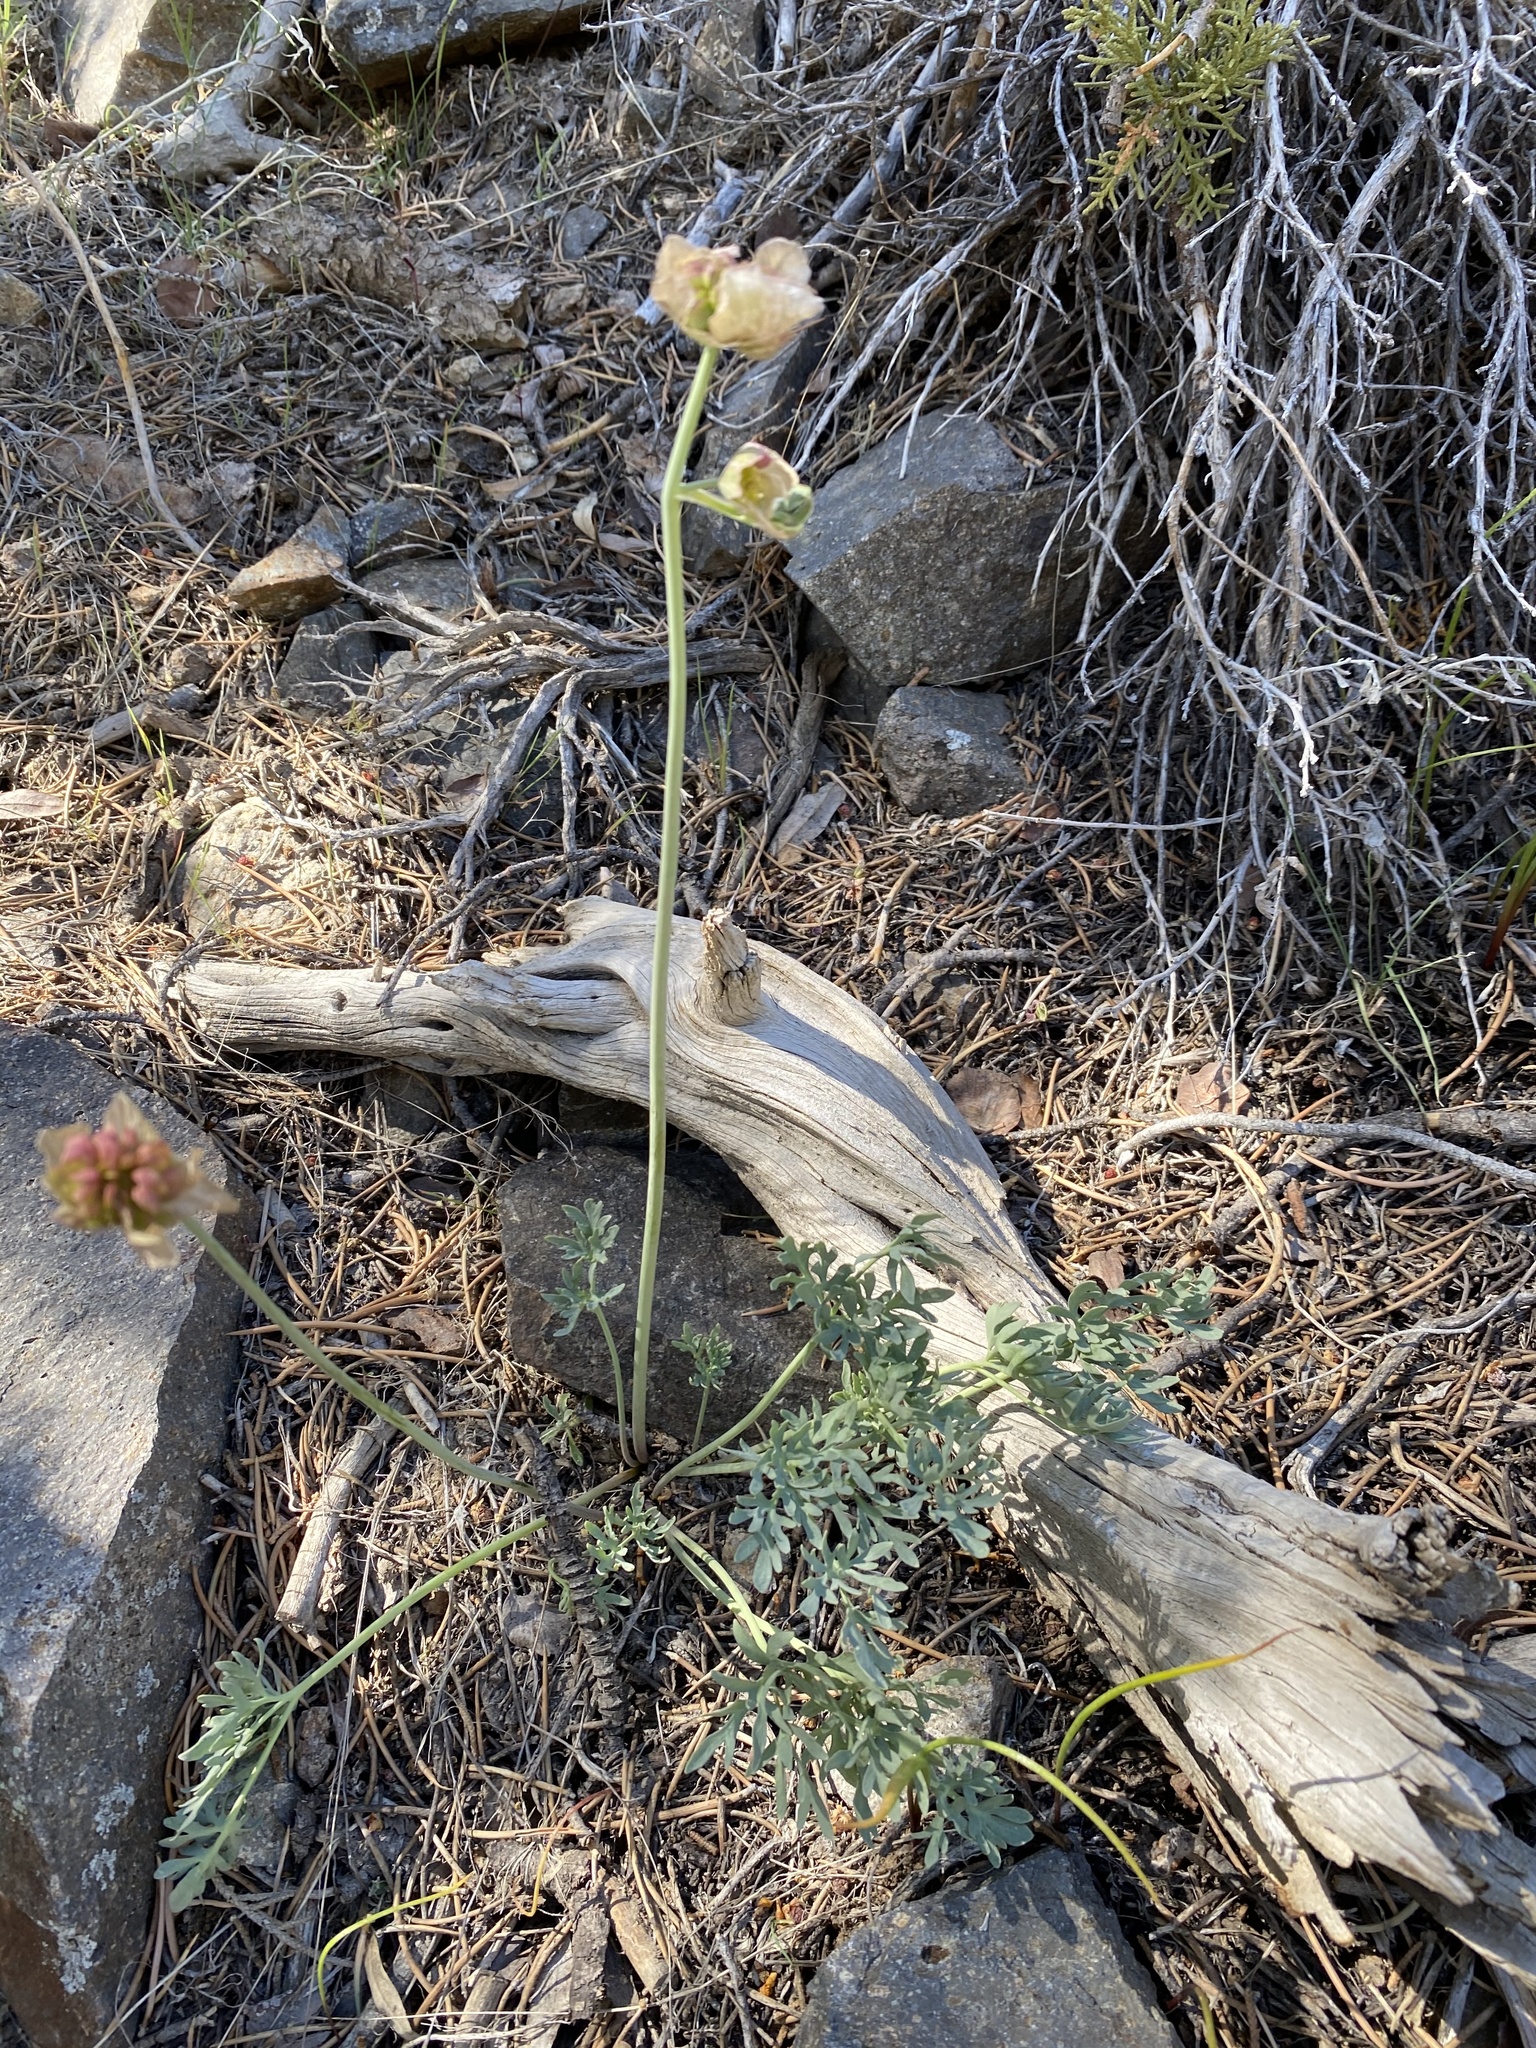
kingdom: Plantae
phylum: Tracheophyta
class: Magnoliopsida
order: Ranunculales
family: Ranunculaceae
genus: Beckwithia
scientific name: Beckwithia andersonii
